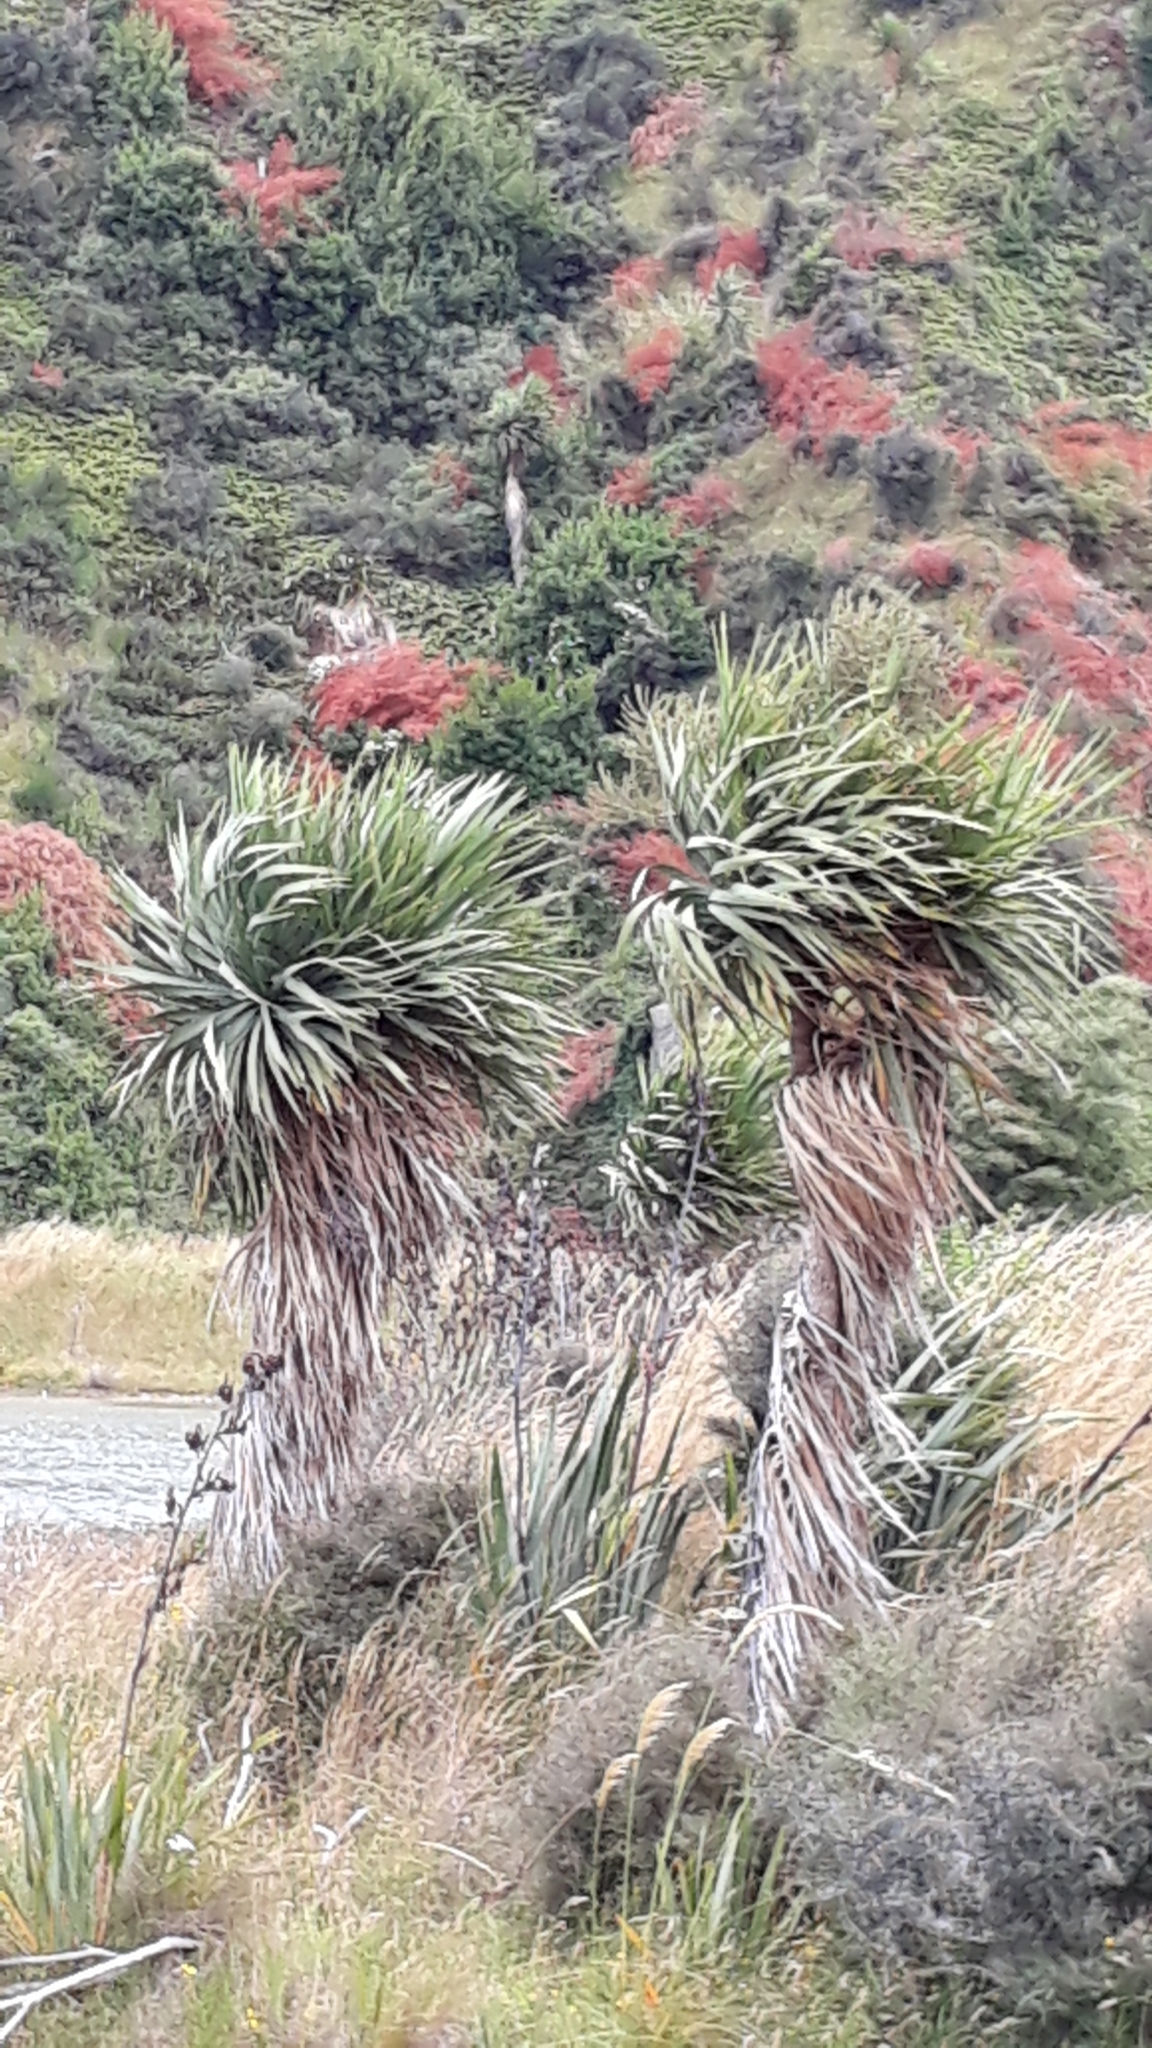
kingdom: Plantae
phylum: Tracheophyta
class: Liliopsida
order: Asparagales
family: Asparagaceae
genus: Cordyline
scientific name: Cordyline australis
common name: Cabbage-palm
